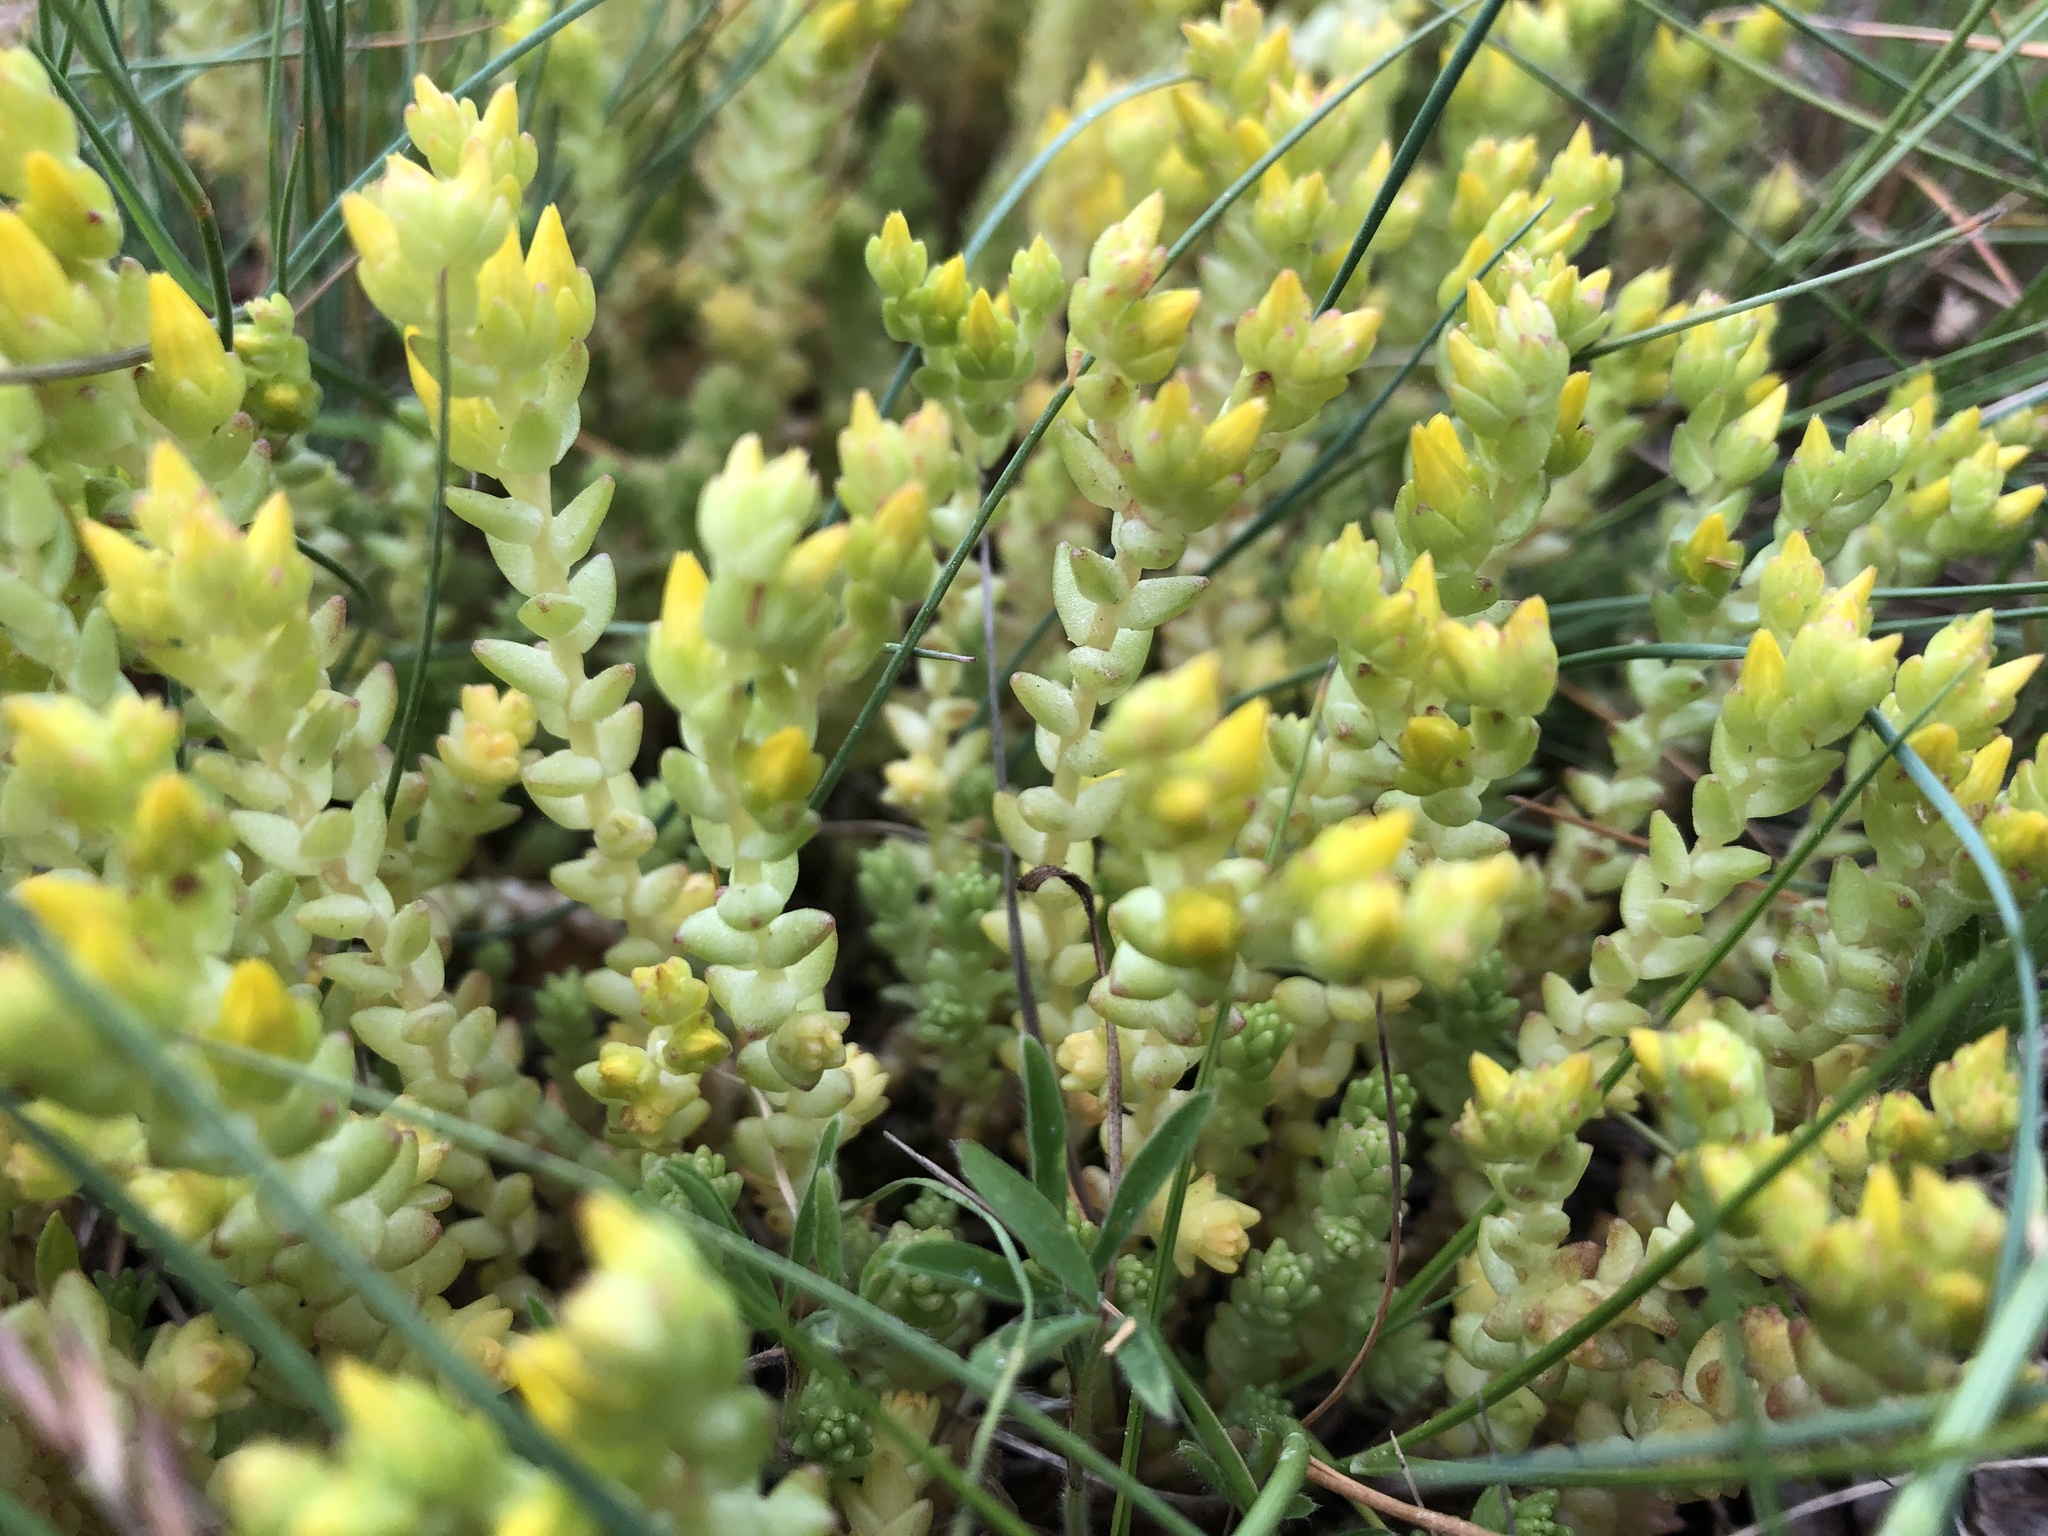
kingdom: Plantae
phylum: Tracheophyta
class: Magnoliopsida
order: Saxifragales
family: Crassulaceae
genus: Sedum
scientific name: Sedum acre
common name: Biting stonecrop
